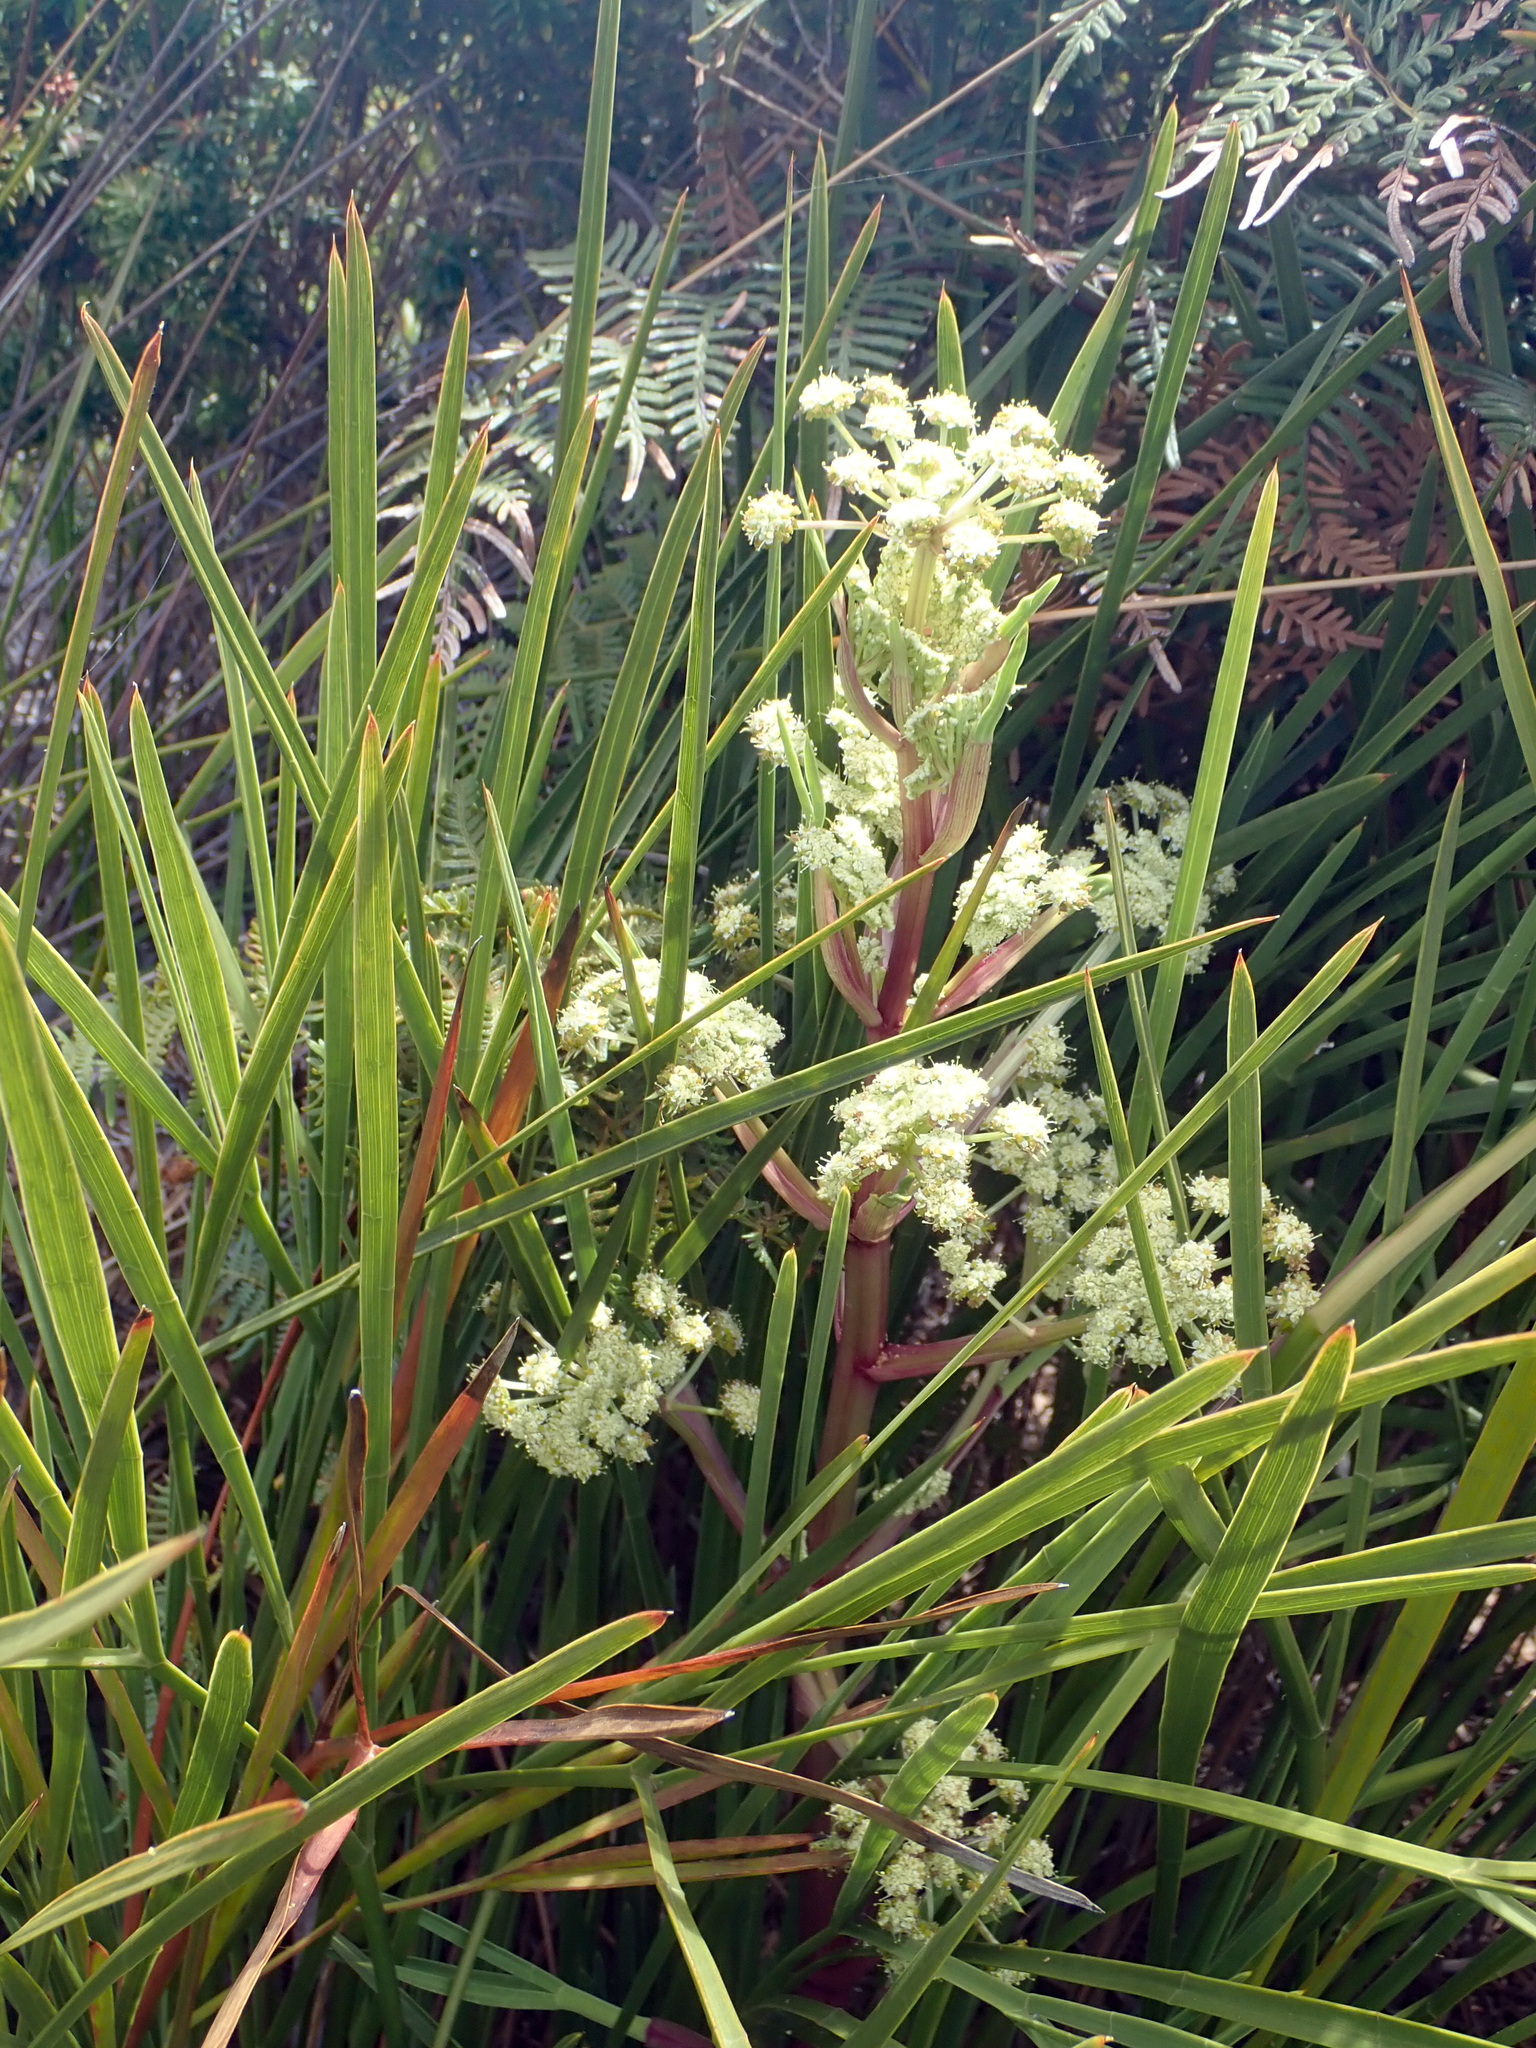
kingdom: Plantae
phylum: Tracheophyta
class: Magnoliopsida
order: Apiales
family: Apiaceae
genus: Aciphylla
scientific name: Aciphylla traversii
